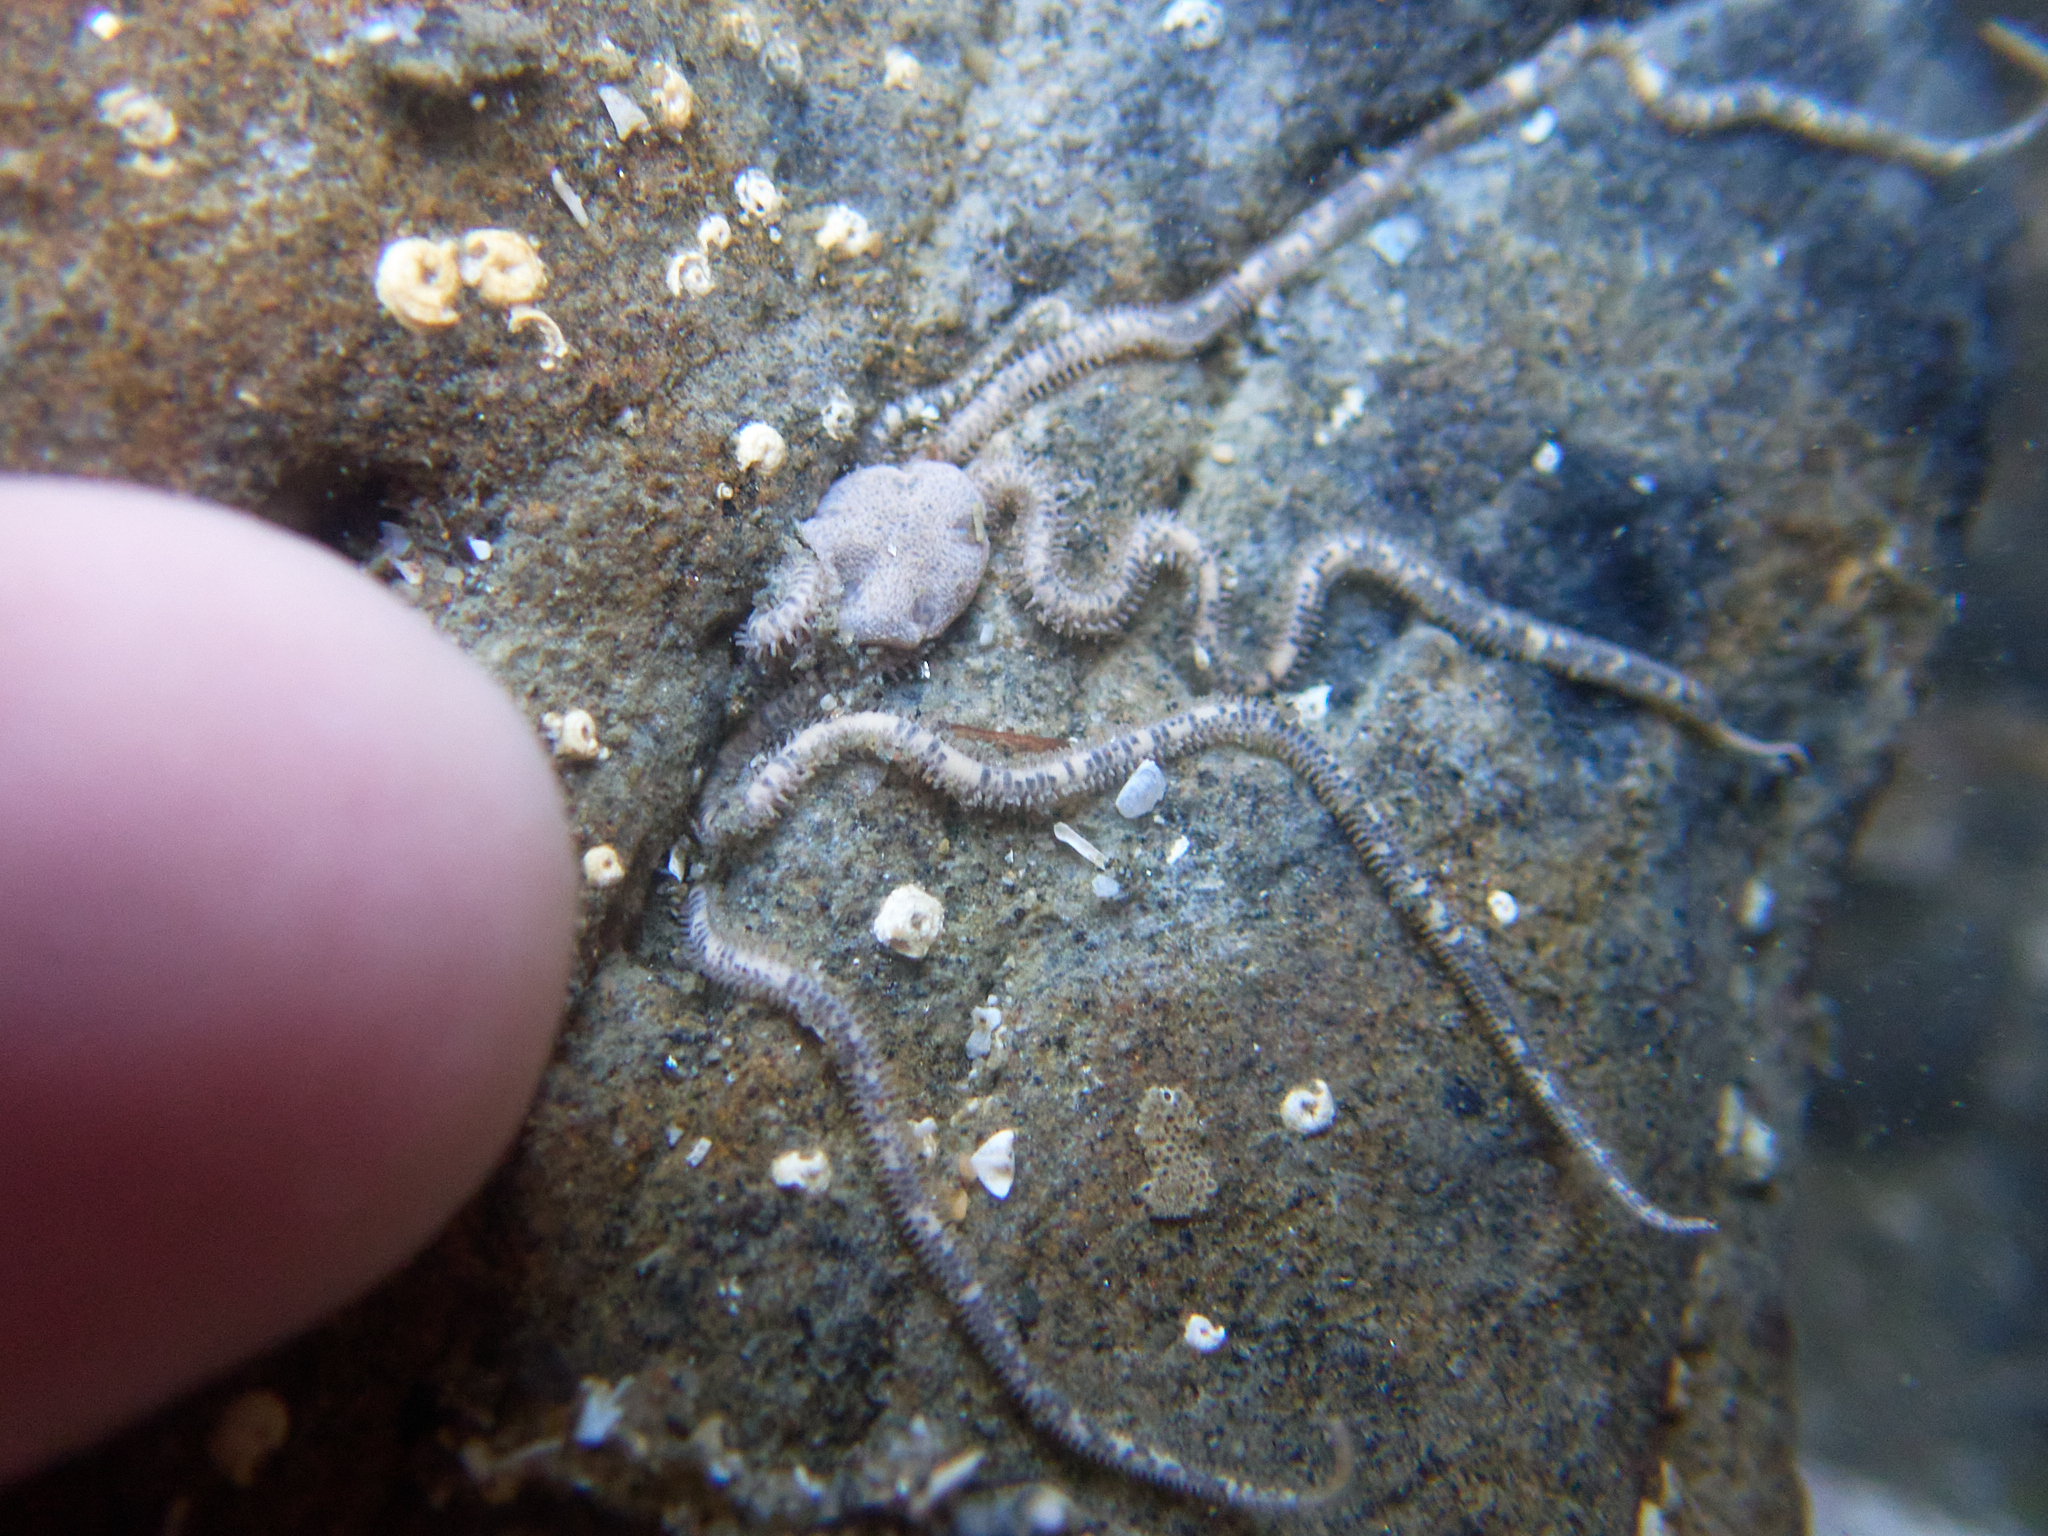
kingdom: Animalia
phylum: Echinodermata
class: Ophiuroidea
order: Amphilepidida
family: Amphiuridae
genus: Amphiodia
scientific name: Amphiodia occidentalis
